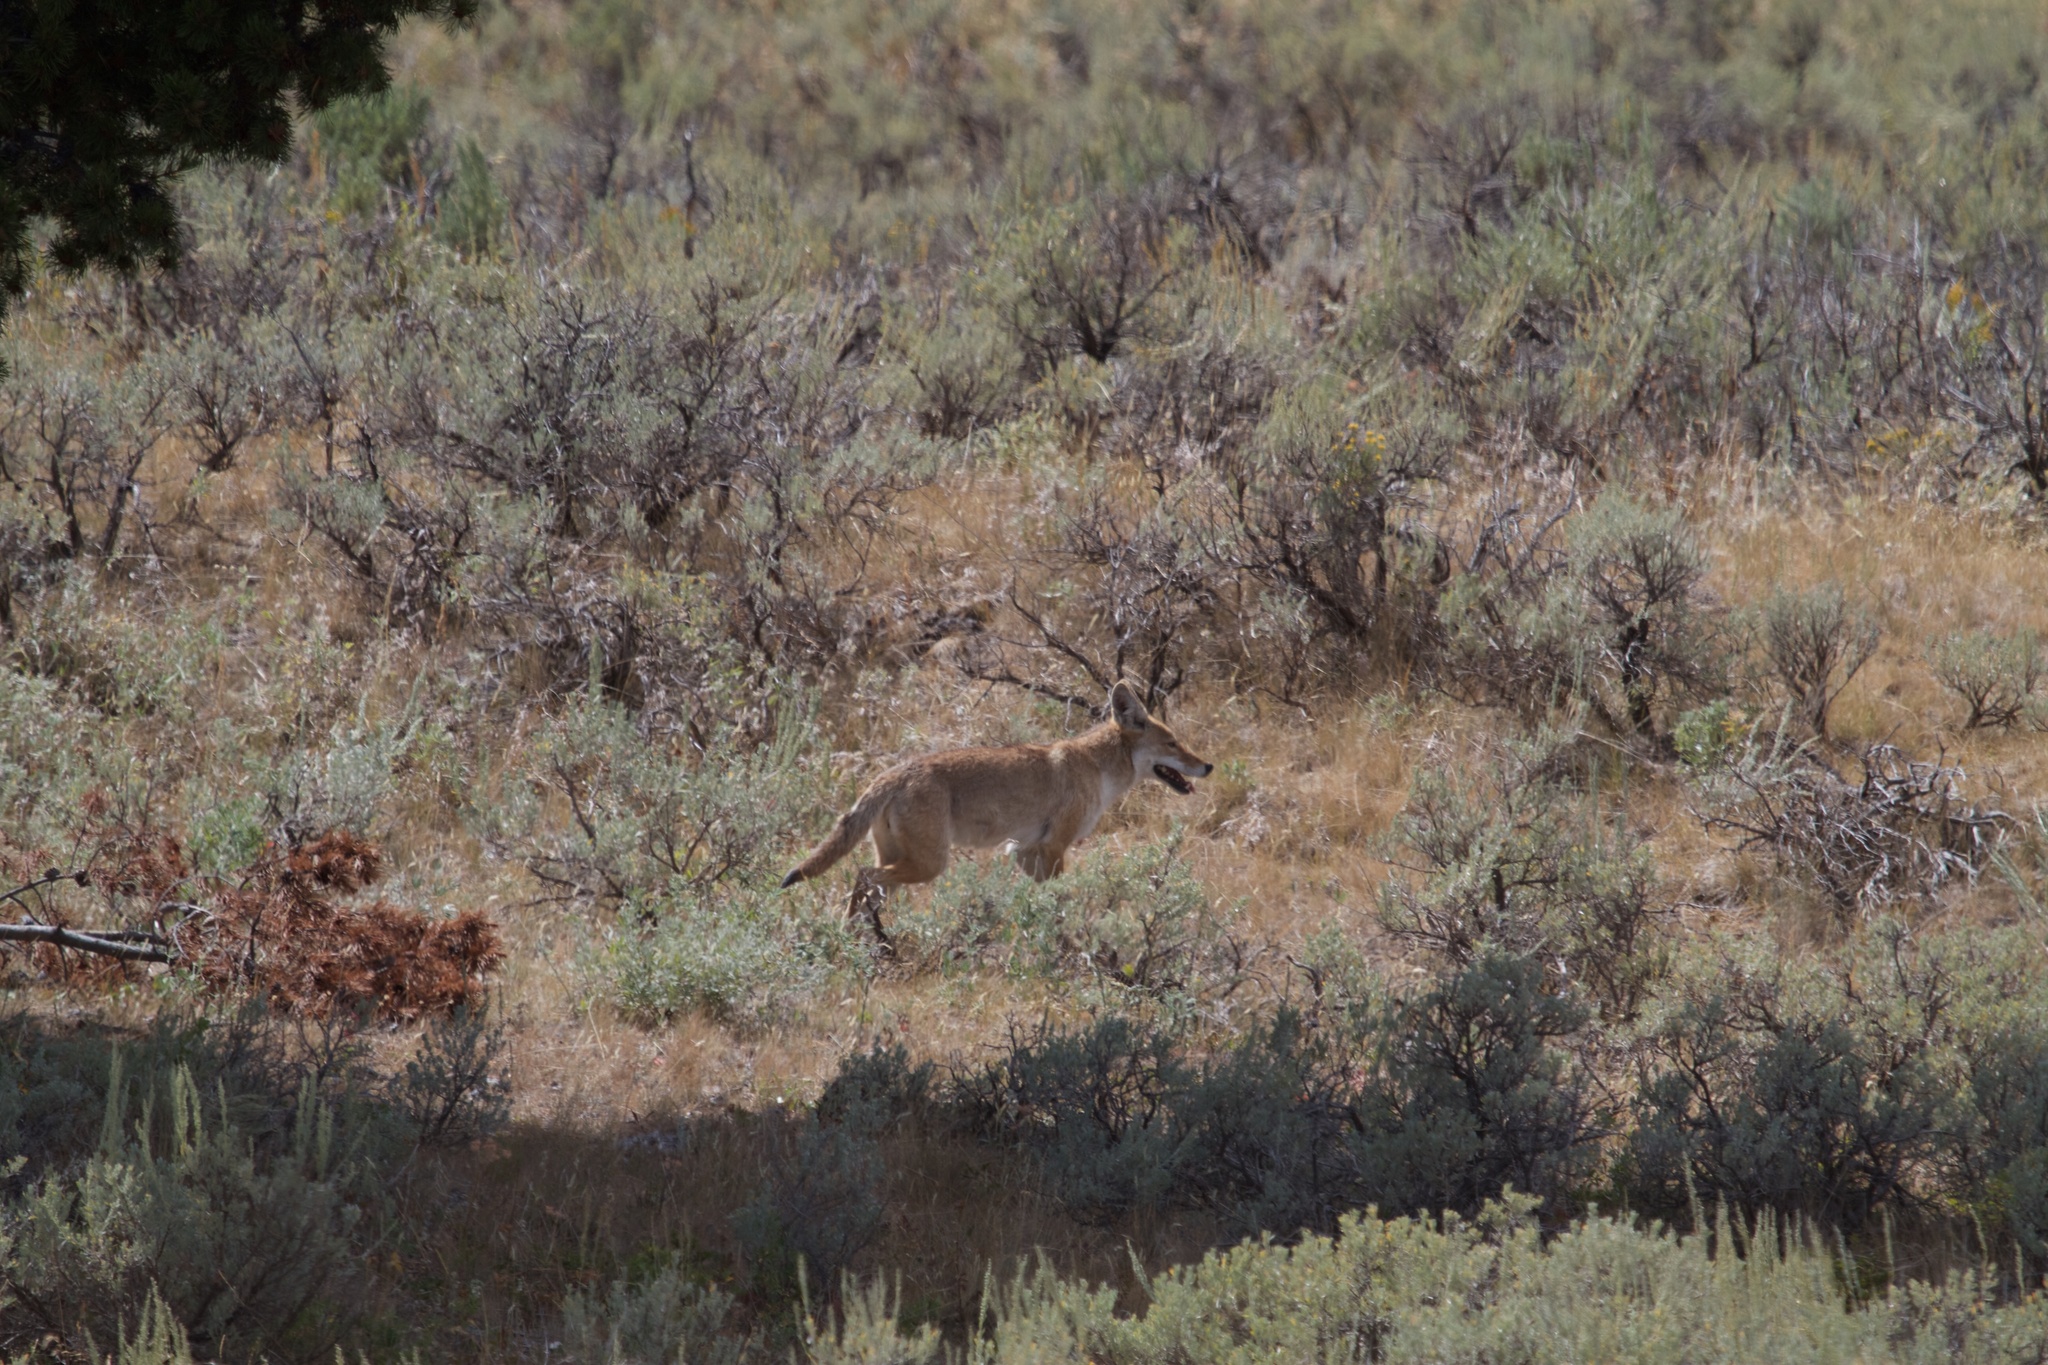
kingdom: Animalia
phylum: Chordata
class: Mammalia
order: Carnivora
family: Canidae
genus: Canis
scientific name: Canis latrans
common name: Coyote
